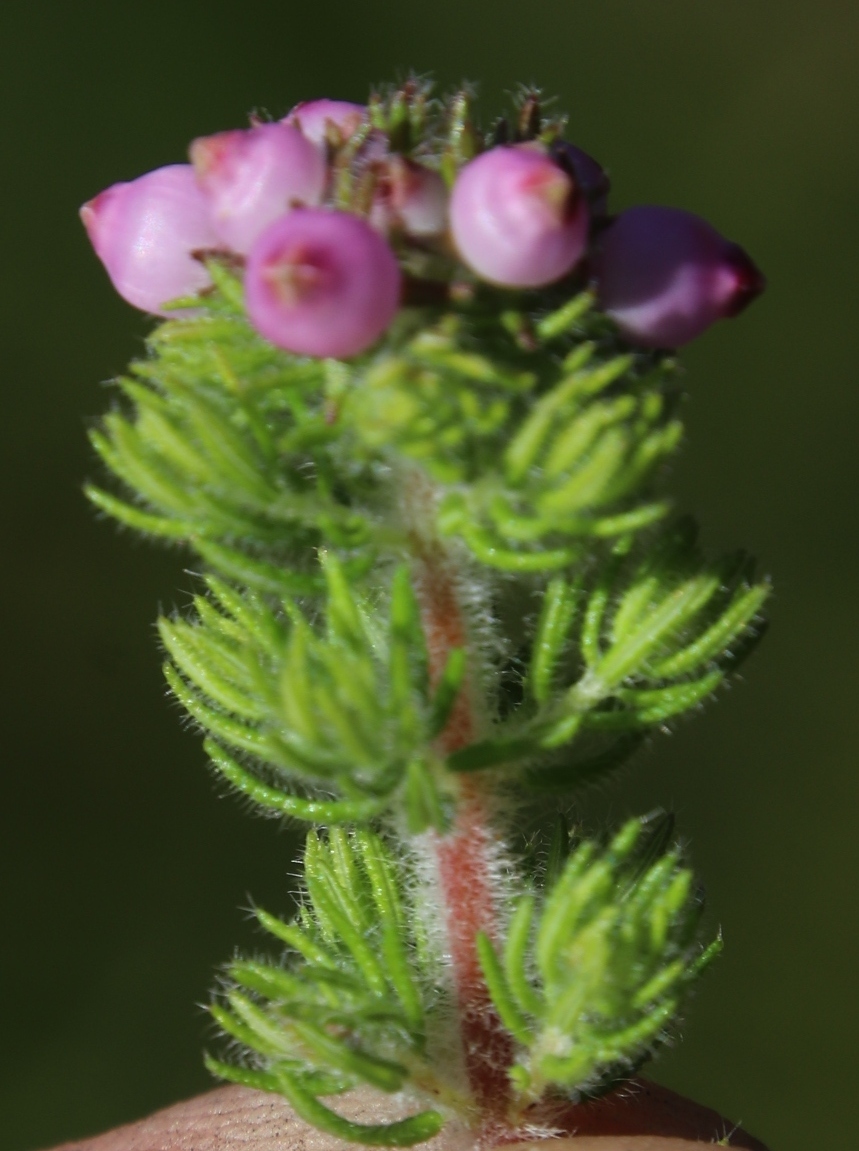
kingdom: Plantae
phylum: Tracheophyta
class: Magnoliopsida
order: Ericales
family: Ericaceae
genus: Erica
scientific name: Erica bergiana
